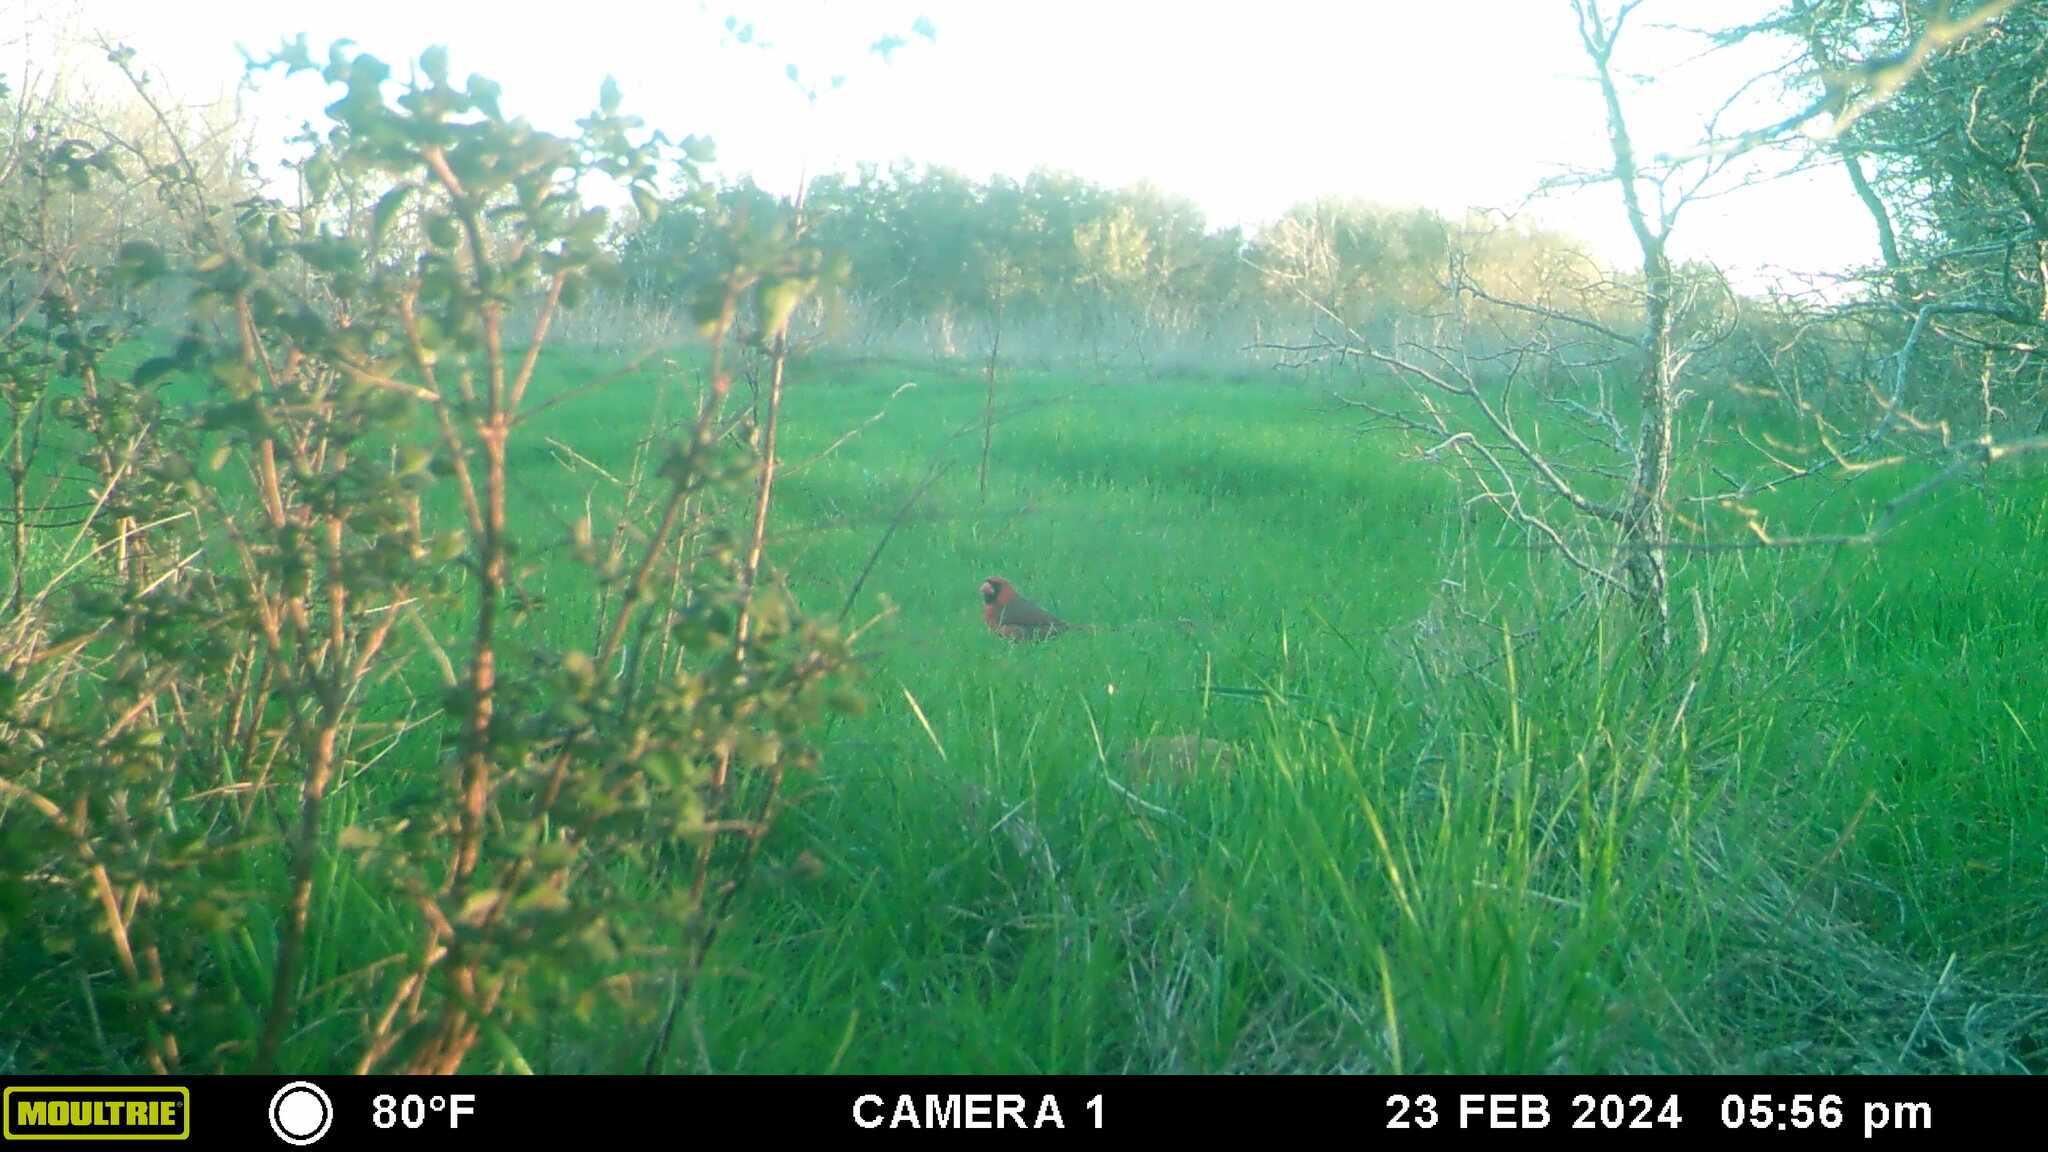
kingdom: Animalia
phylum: Chordata
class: Aves
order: Passeriformes
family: Cardinalidae
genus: Cardinalis
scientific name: Cardinalis cardinalis
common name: Northern cardinal
